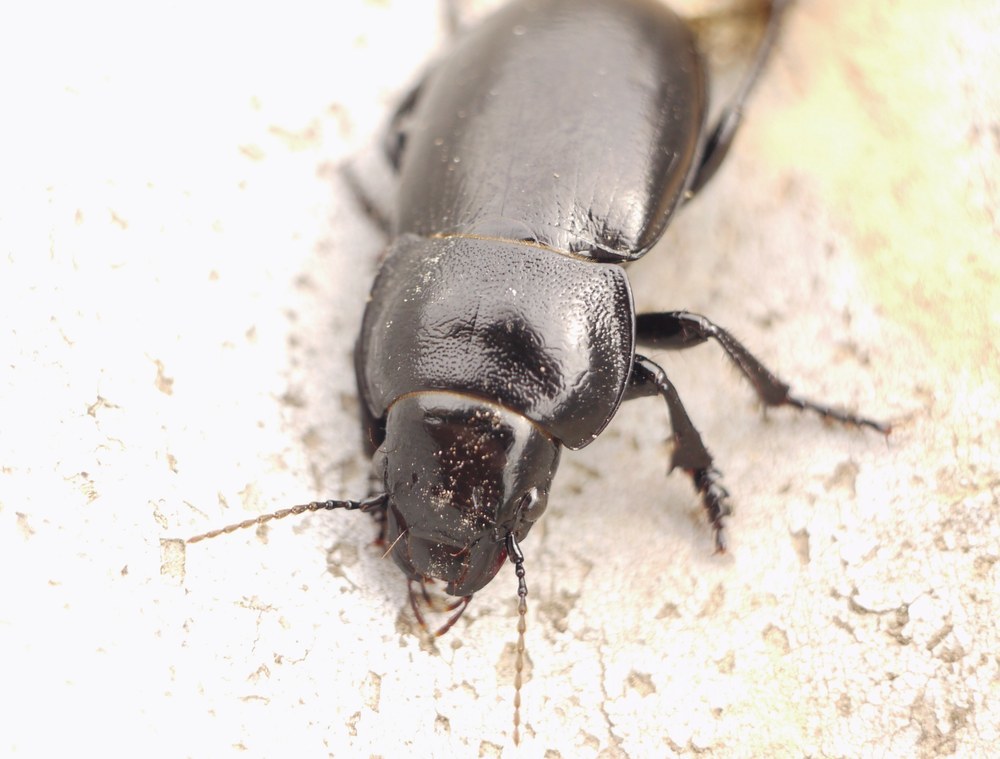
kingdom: Animalia
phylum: Arthropoda
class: Insecta
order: Coleoptera
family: Carabidae
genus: Zabrus
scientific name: Zabrus spinipes
